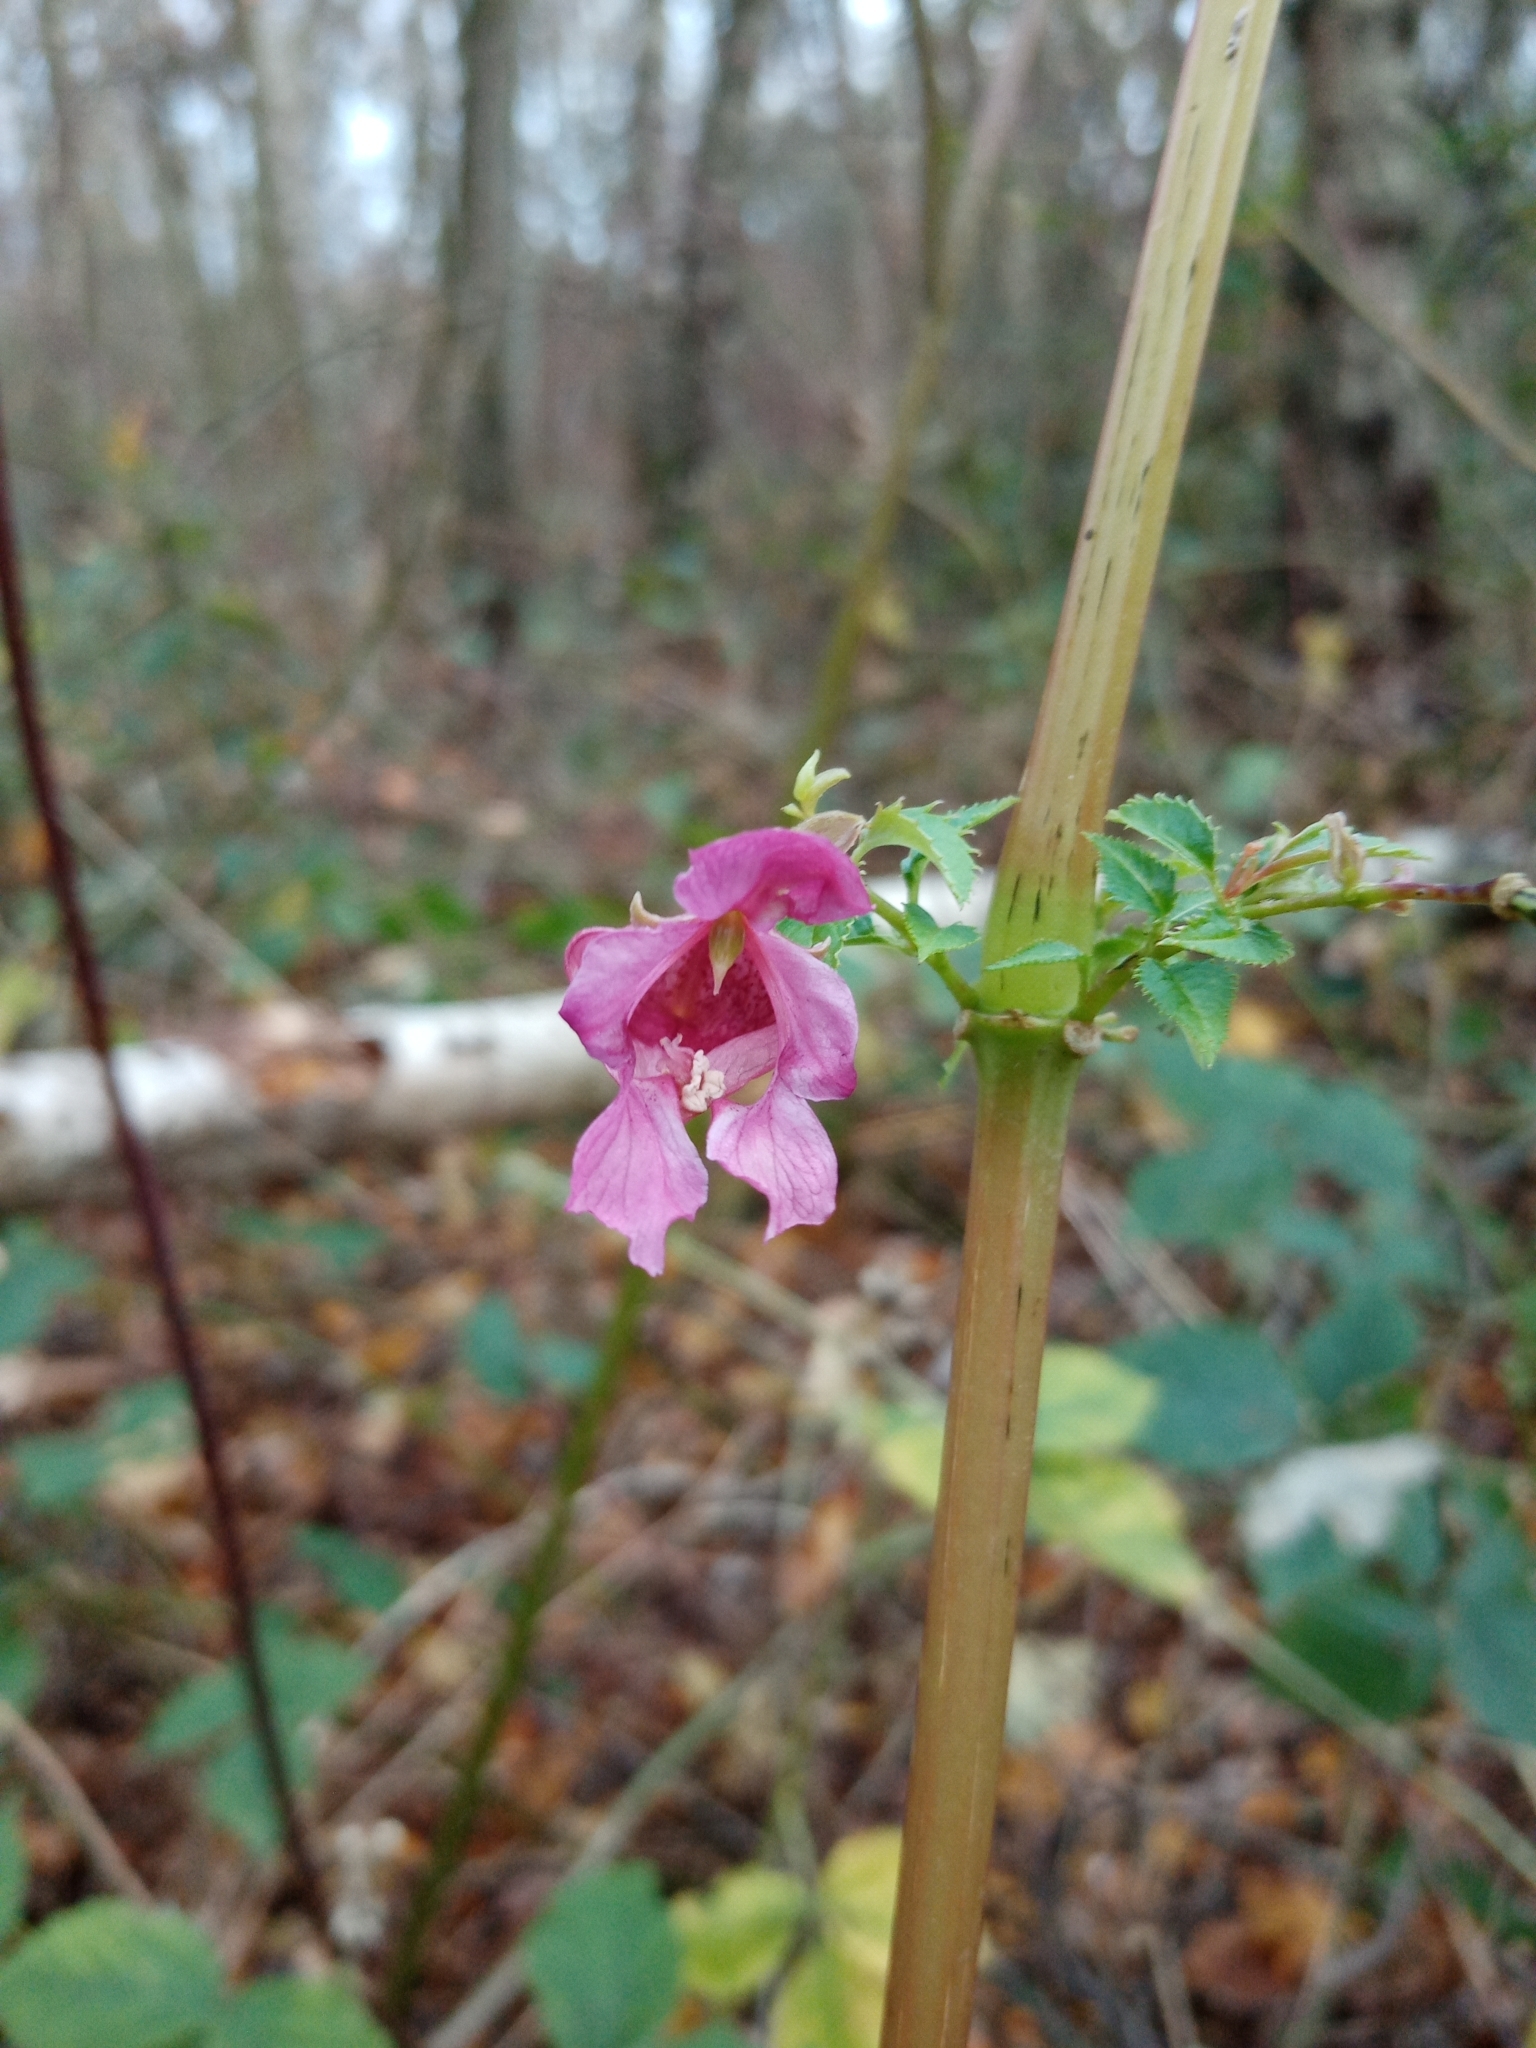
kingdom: Plantae
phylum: Tracheophyta
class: Magnoliopsida
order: Ericales
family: Balsaminaceae
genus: Impatiens
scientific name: Impatiens glandulifera
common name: Himalayan balsam
